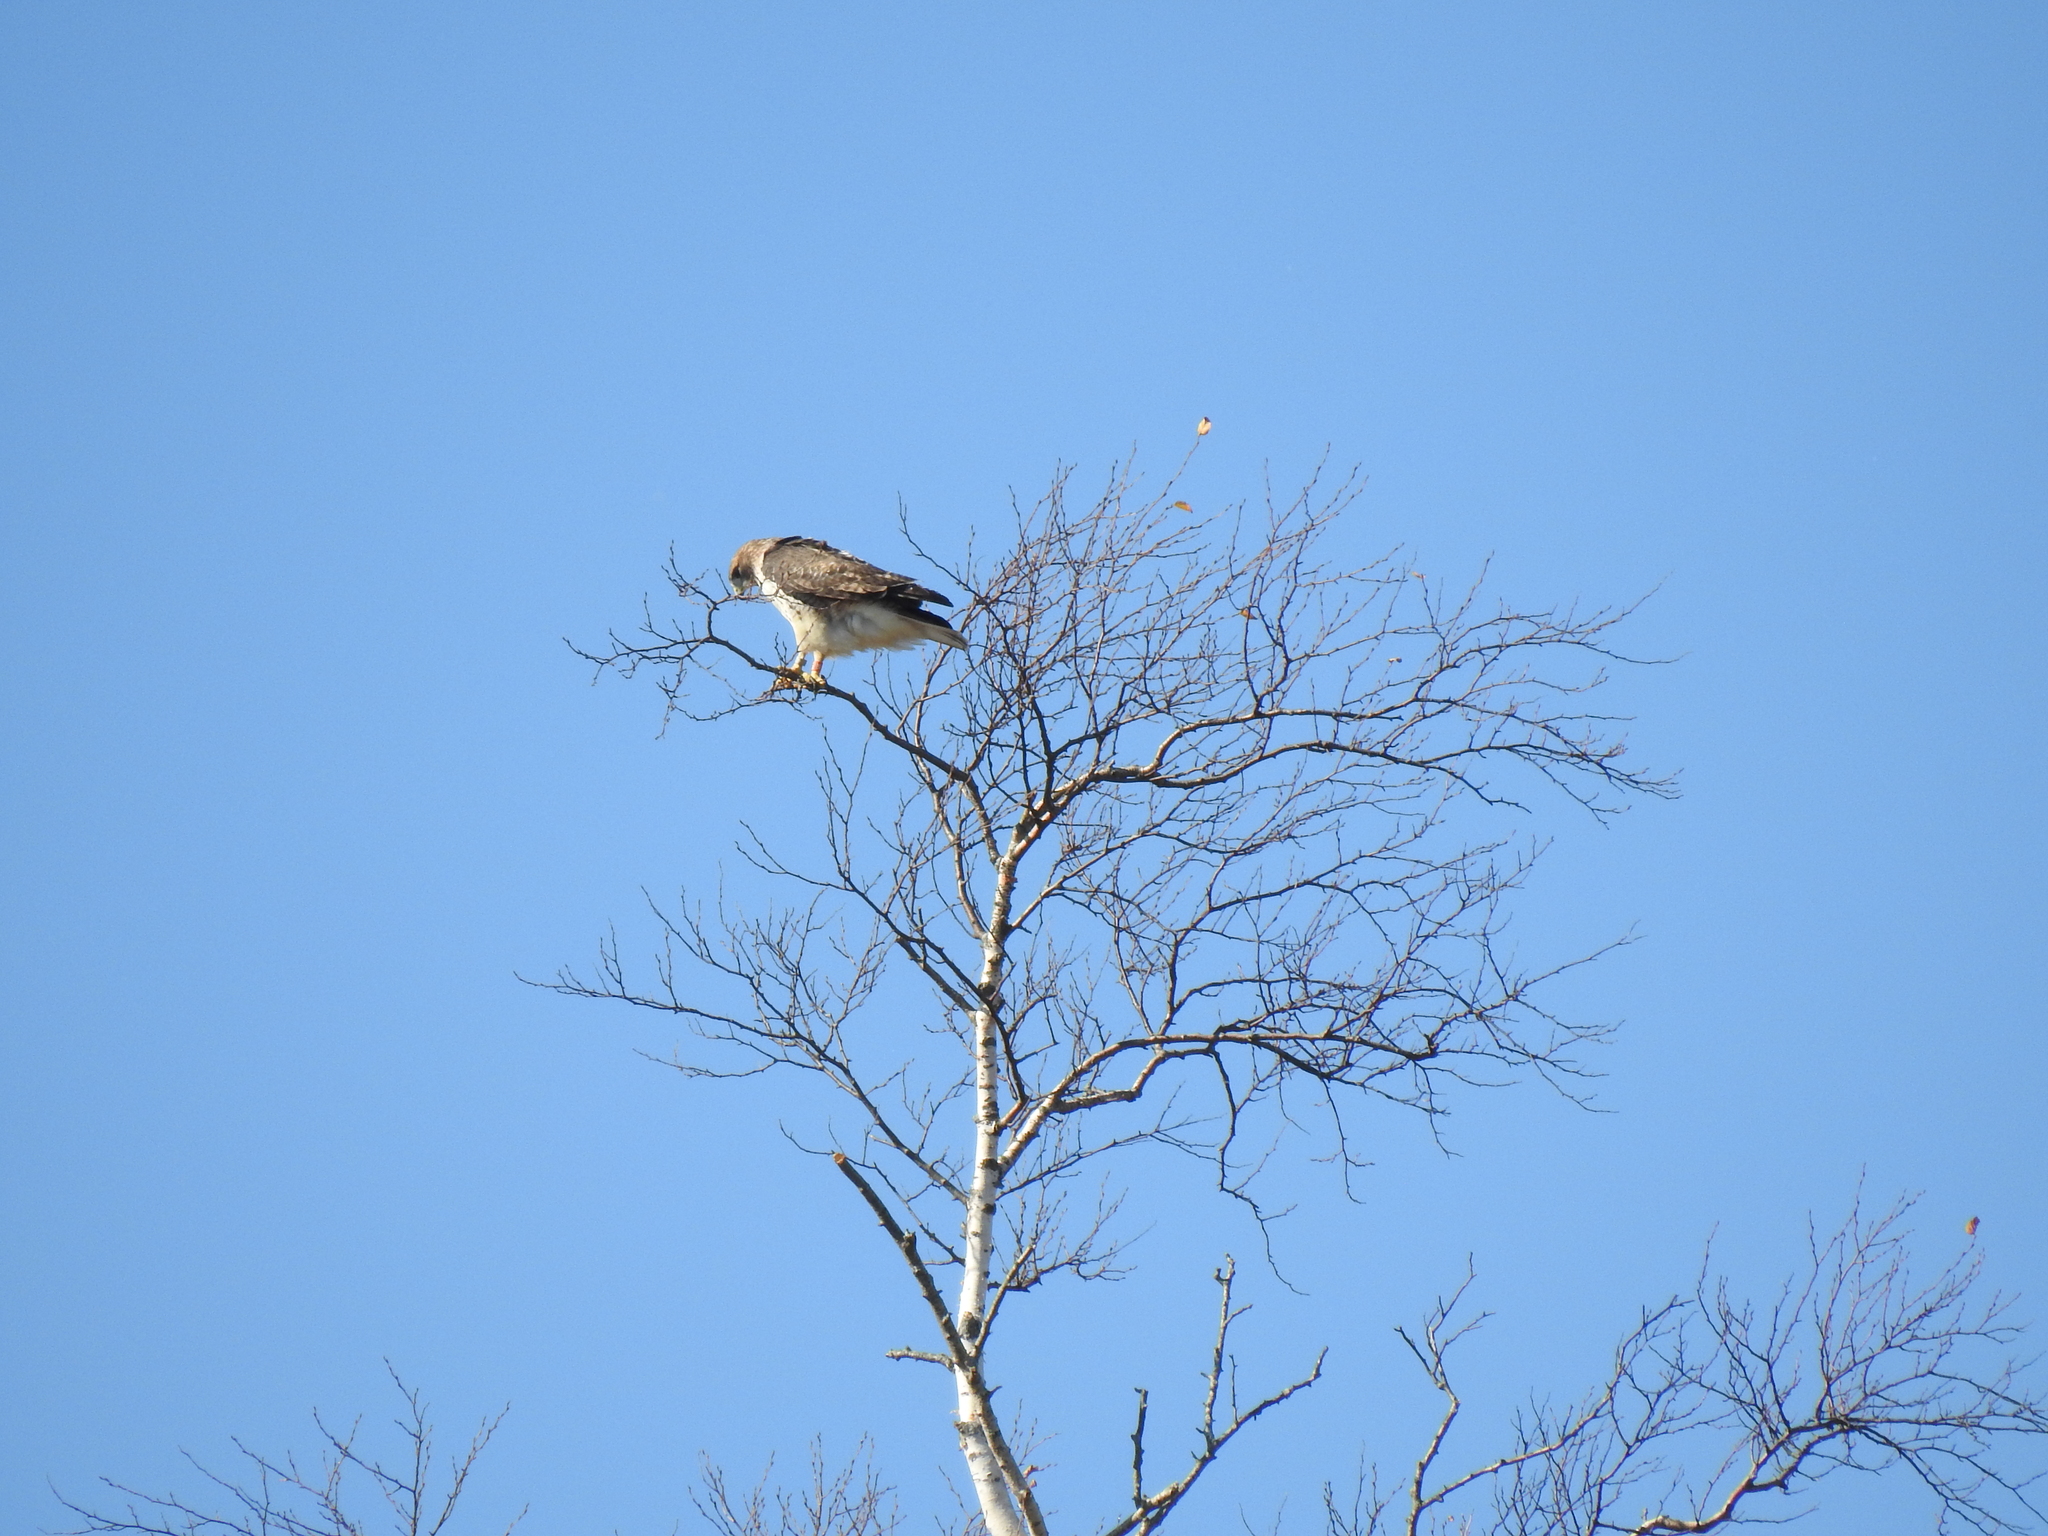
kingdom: Animalia
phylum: Chordata
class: Aves
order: Accipitriformes
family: Accipitridae
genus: Buteo
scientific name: Buteo jamaicensis
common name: Red-tailed hawk
